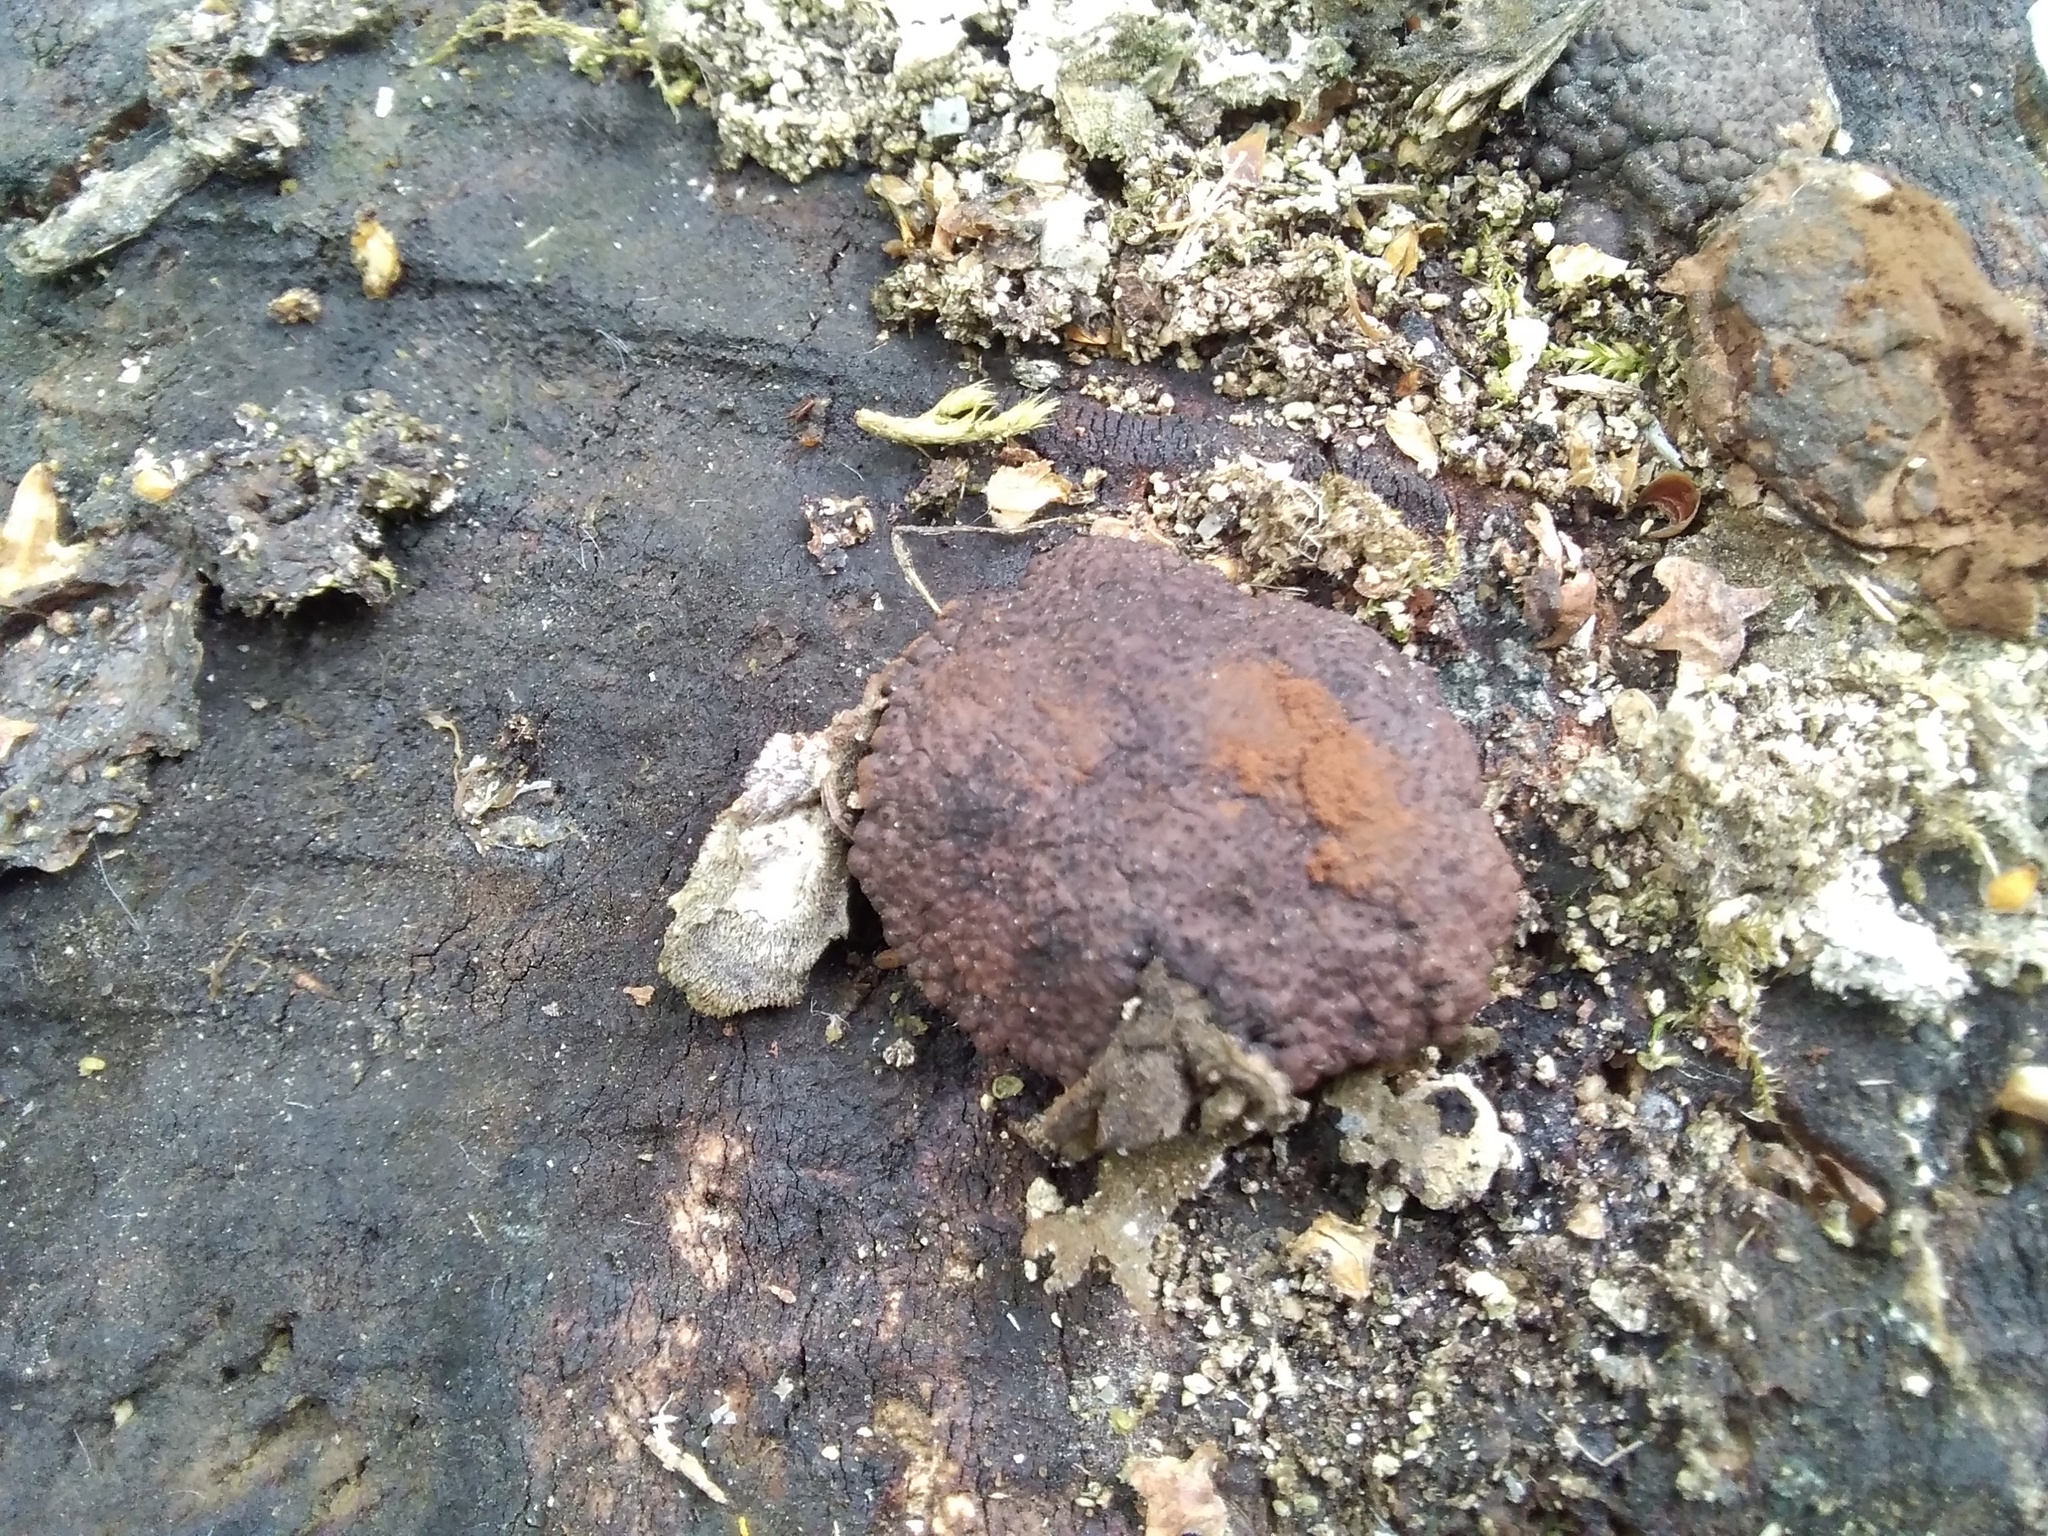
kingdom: Fungi
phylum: Ascomycota
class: Sordariomycetes
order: Xylariales
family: Hypoxylaceae
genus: Jackrogersella
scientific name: Jackrogersella multiformis
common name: Birch woodwart
